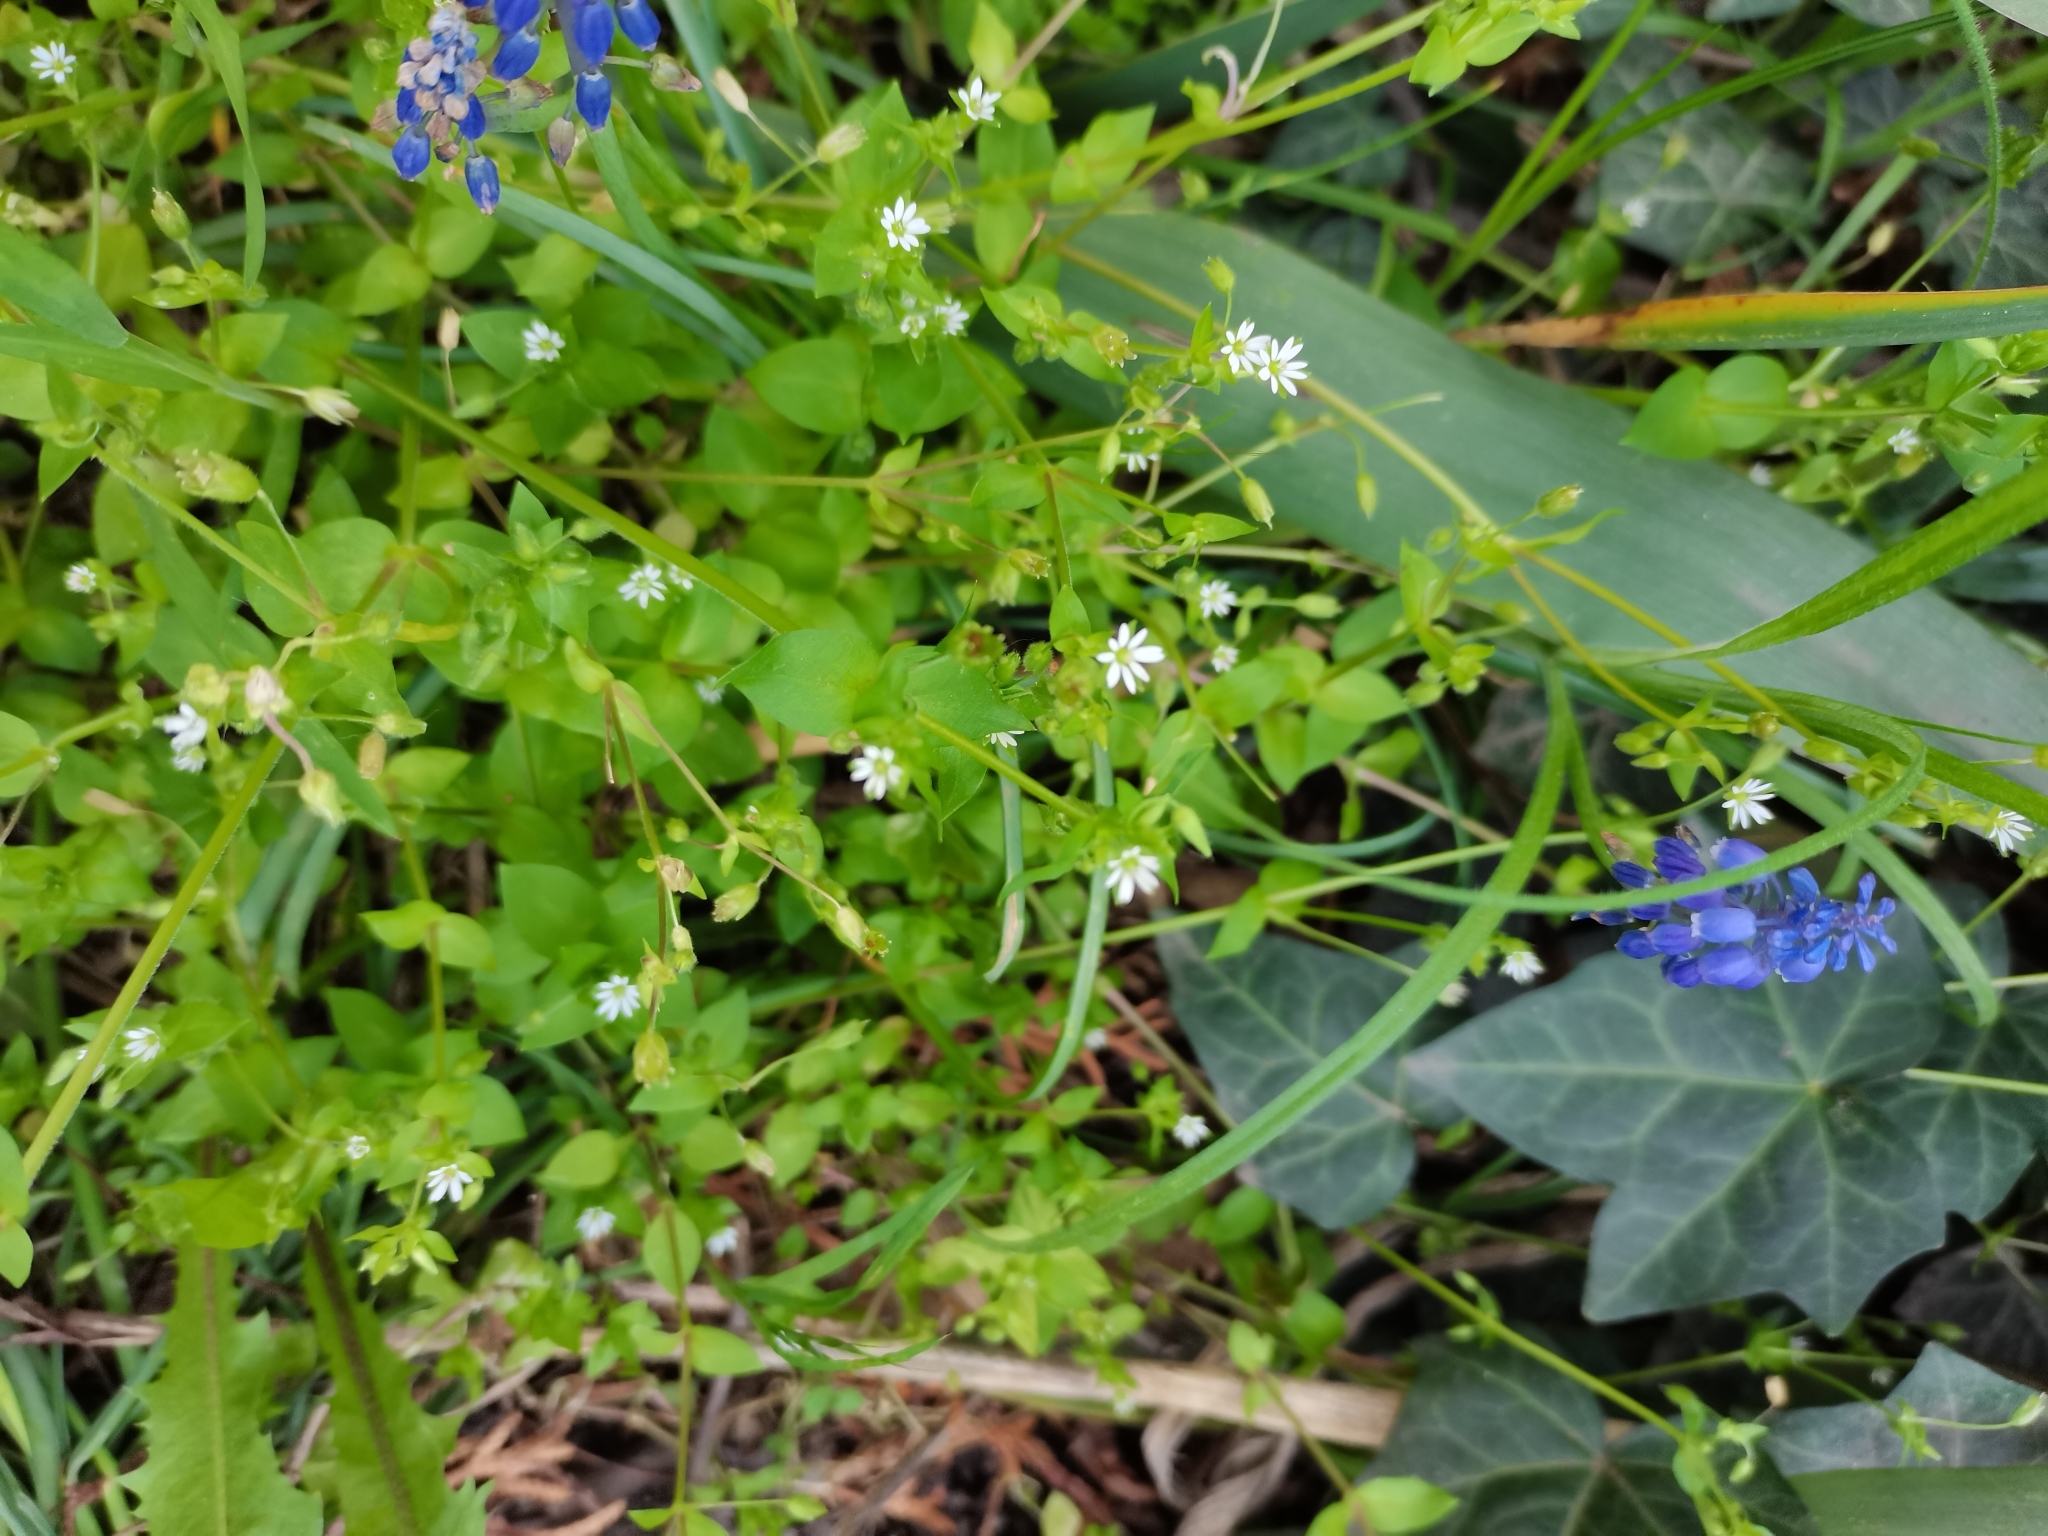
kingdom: Plantae
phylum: Tracheophyta
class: Magnoliopsida
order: Caryophyllales
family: Caryophyllaceae
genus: Stellaria
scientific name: Stellaria media
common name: Common chickweed
